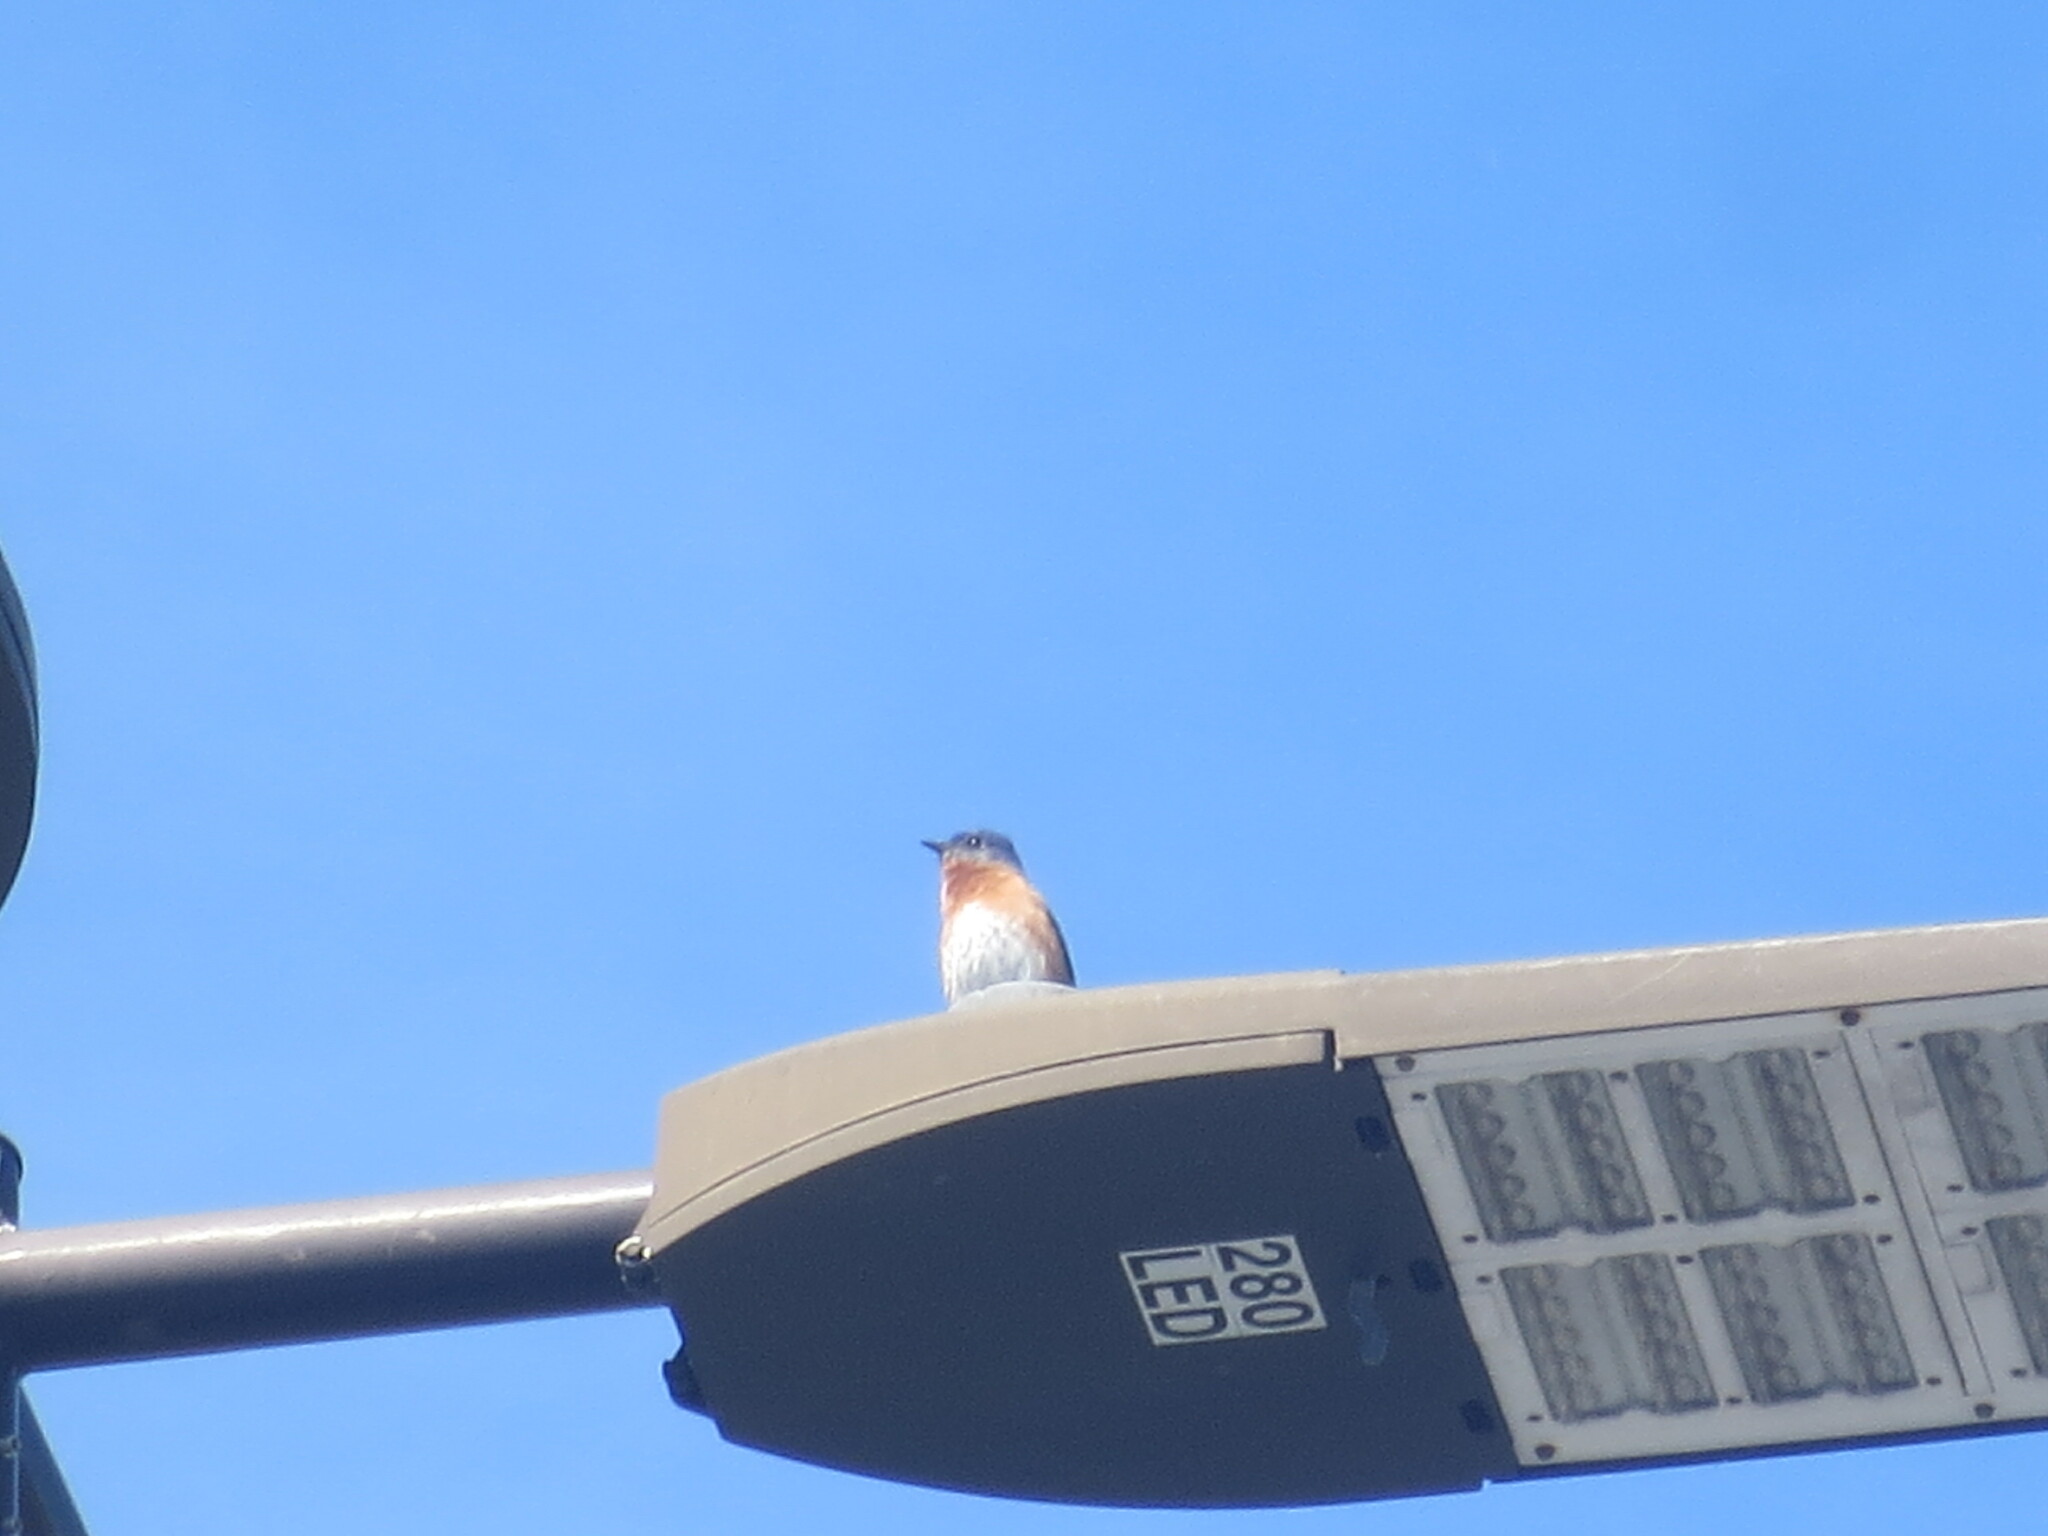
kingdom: Animalia
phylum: Chordata
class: Aves
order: Passeriformes
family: Turdidae
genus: Sialia
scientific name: Sialia sialis
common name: Eastern bluebird
